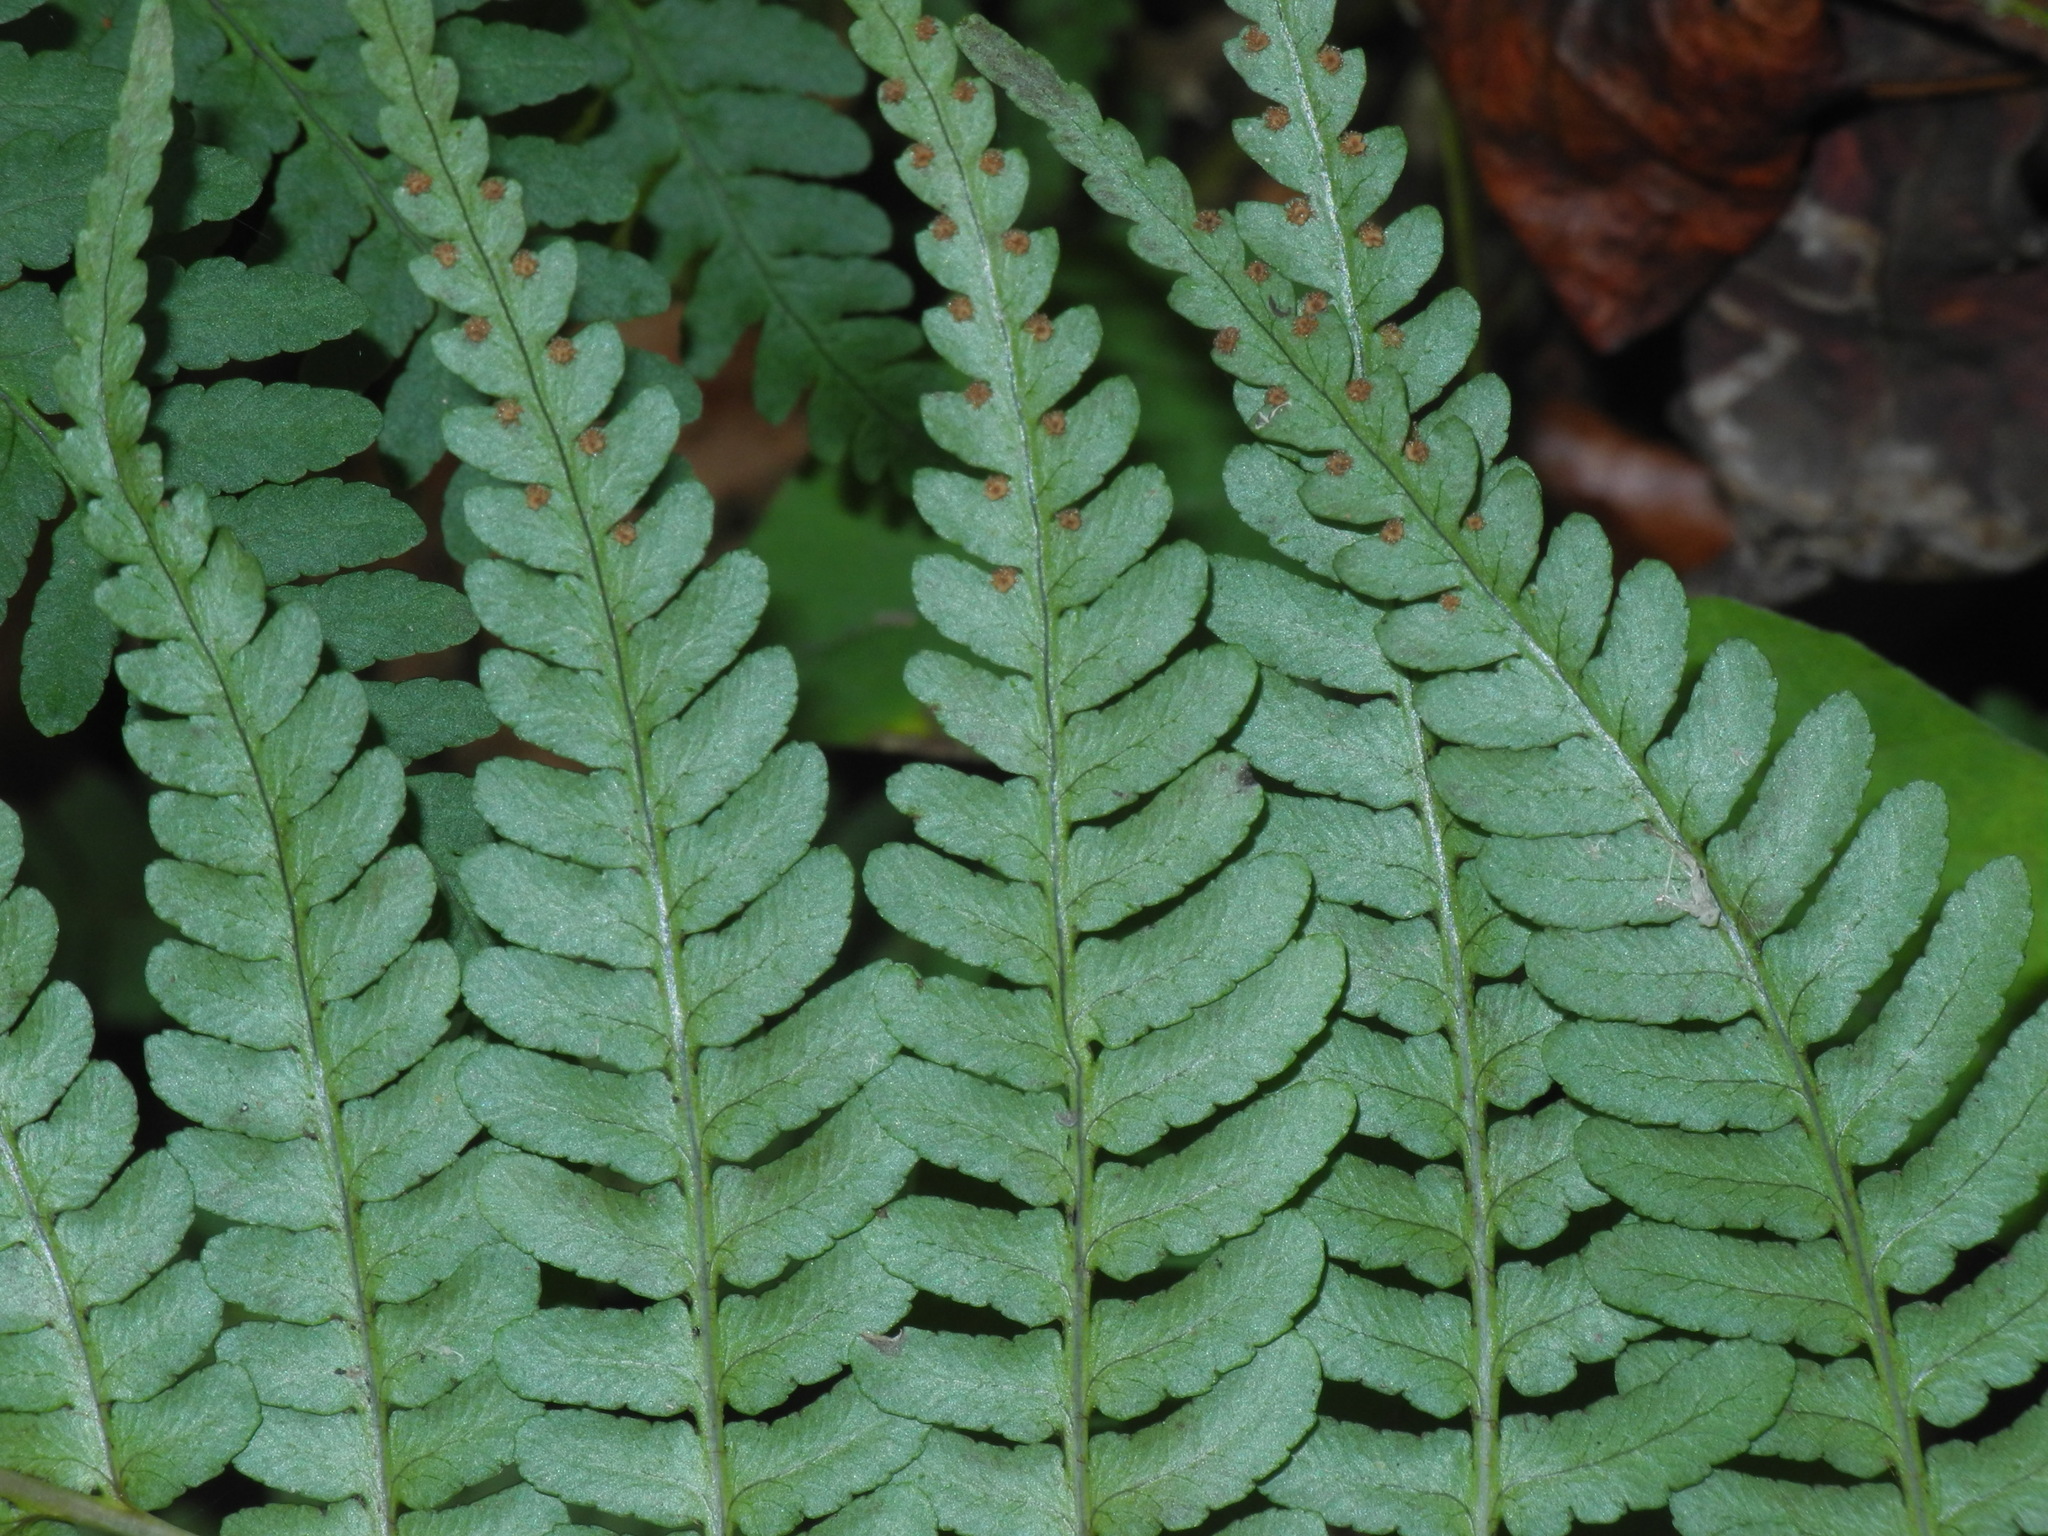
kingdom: Plantae
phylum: Tracheophyta
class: Polypodiopsida
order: Polypodiales
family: Dryopteridaceae
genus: Dryopteris
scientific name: Dryopteris marginalis
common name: Marginal wood fern
